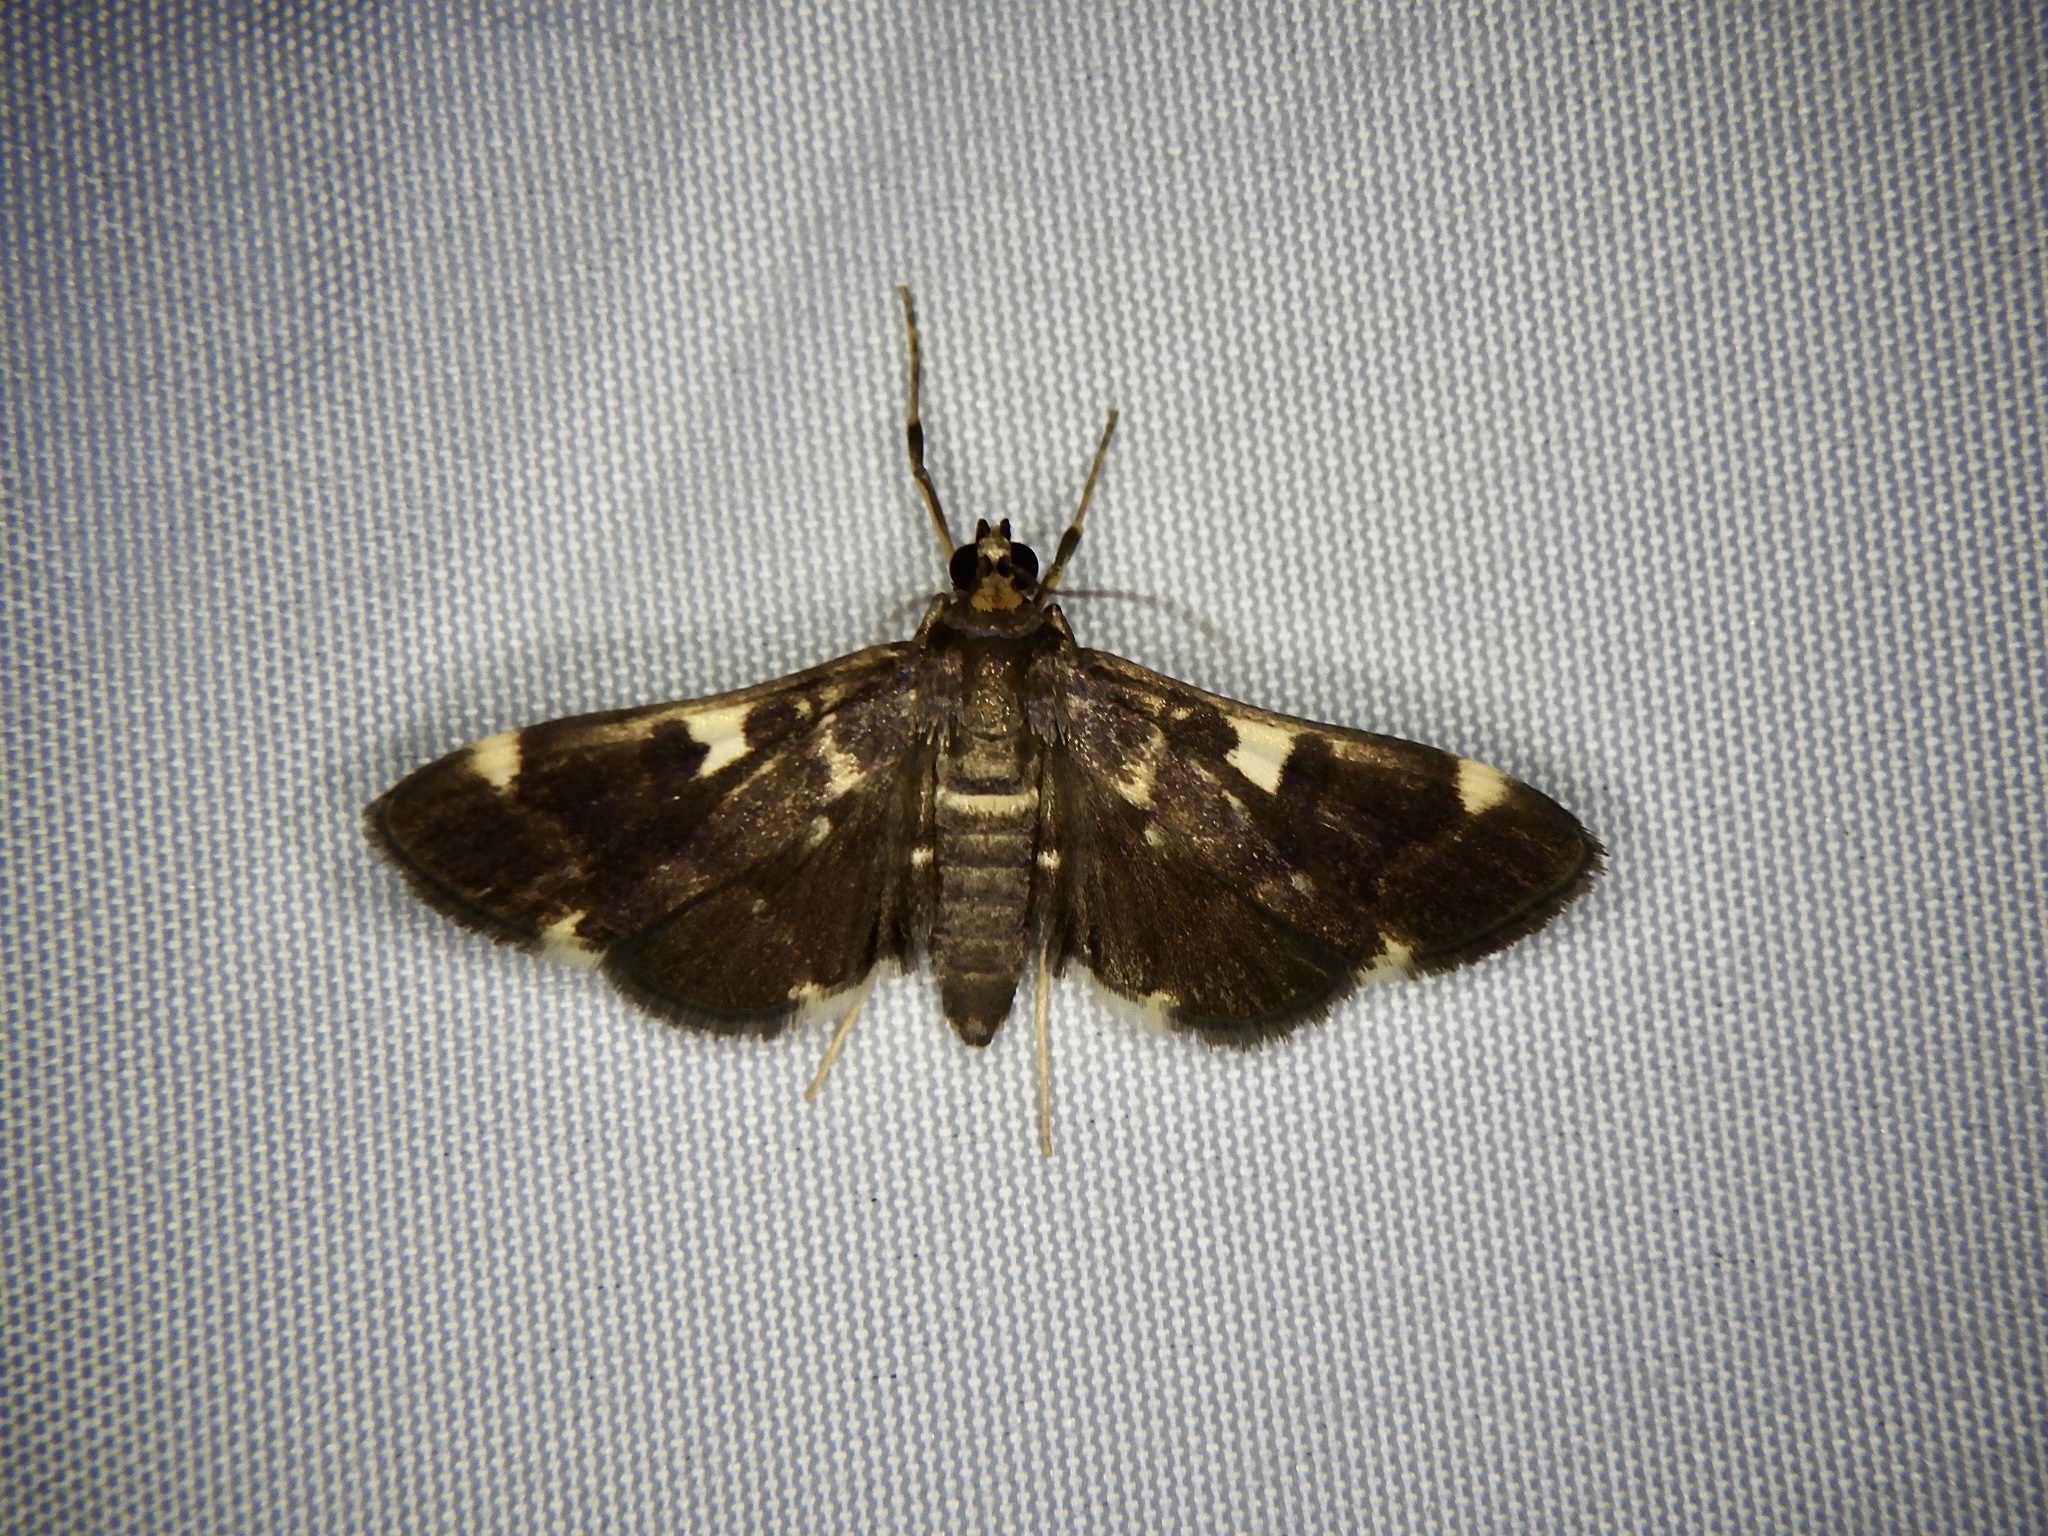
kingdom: Animalia
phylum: Arthropoda
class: Insecta
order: Lepidoptera
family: Crambidae
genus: Piletocera
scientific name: Piletocera aegimiusalis
